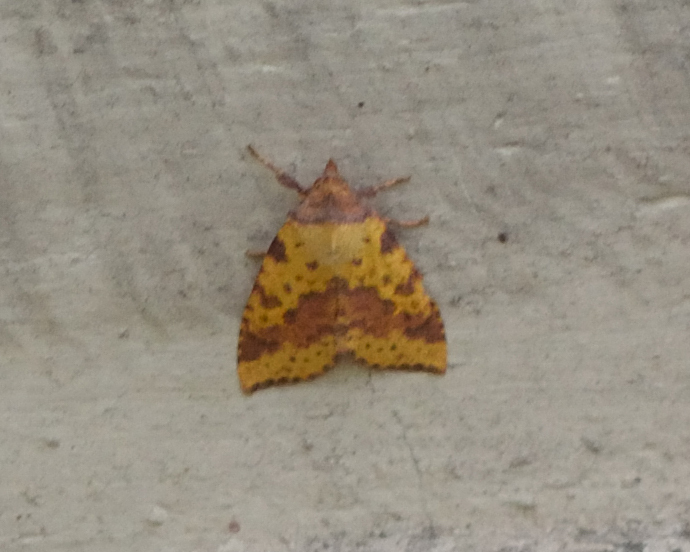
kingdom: Animalia
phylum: Arthropoda
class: Insecta
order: Lepidoptera
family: Noctuidae
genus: Xanthia
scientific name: Xanthia togata
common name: Pink-barred sallow
